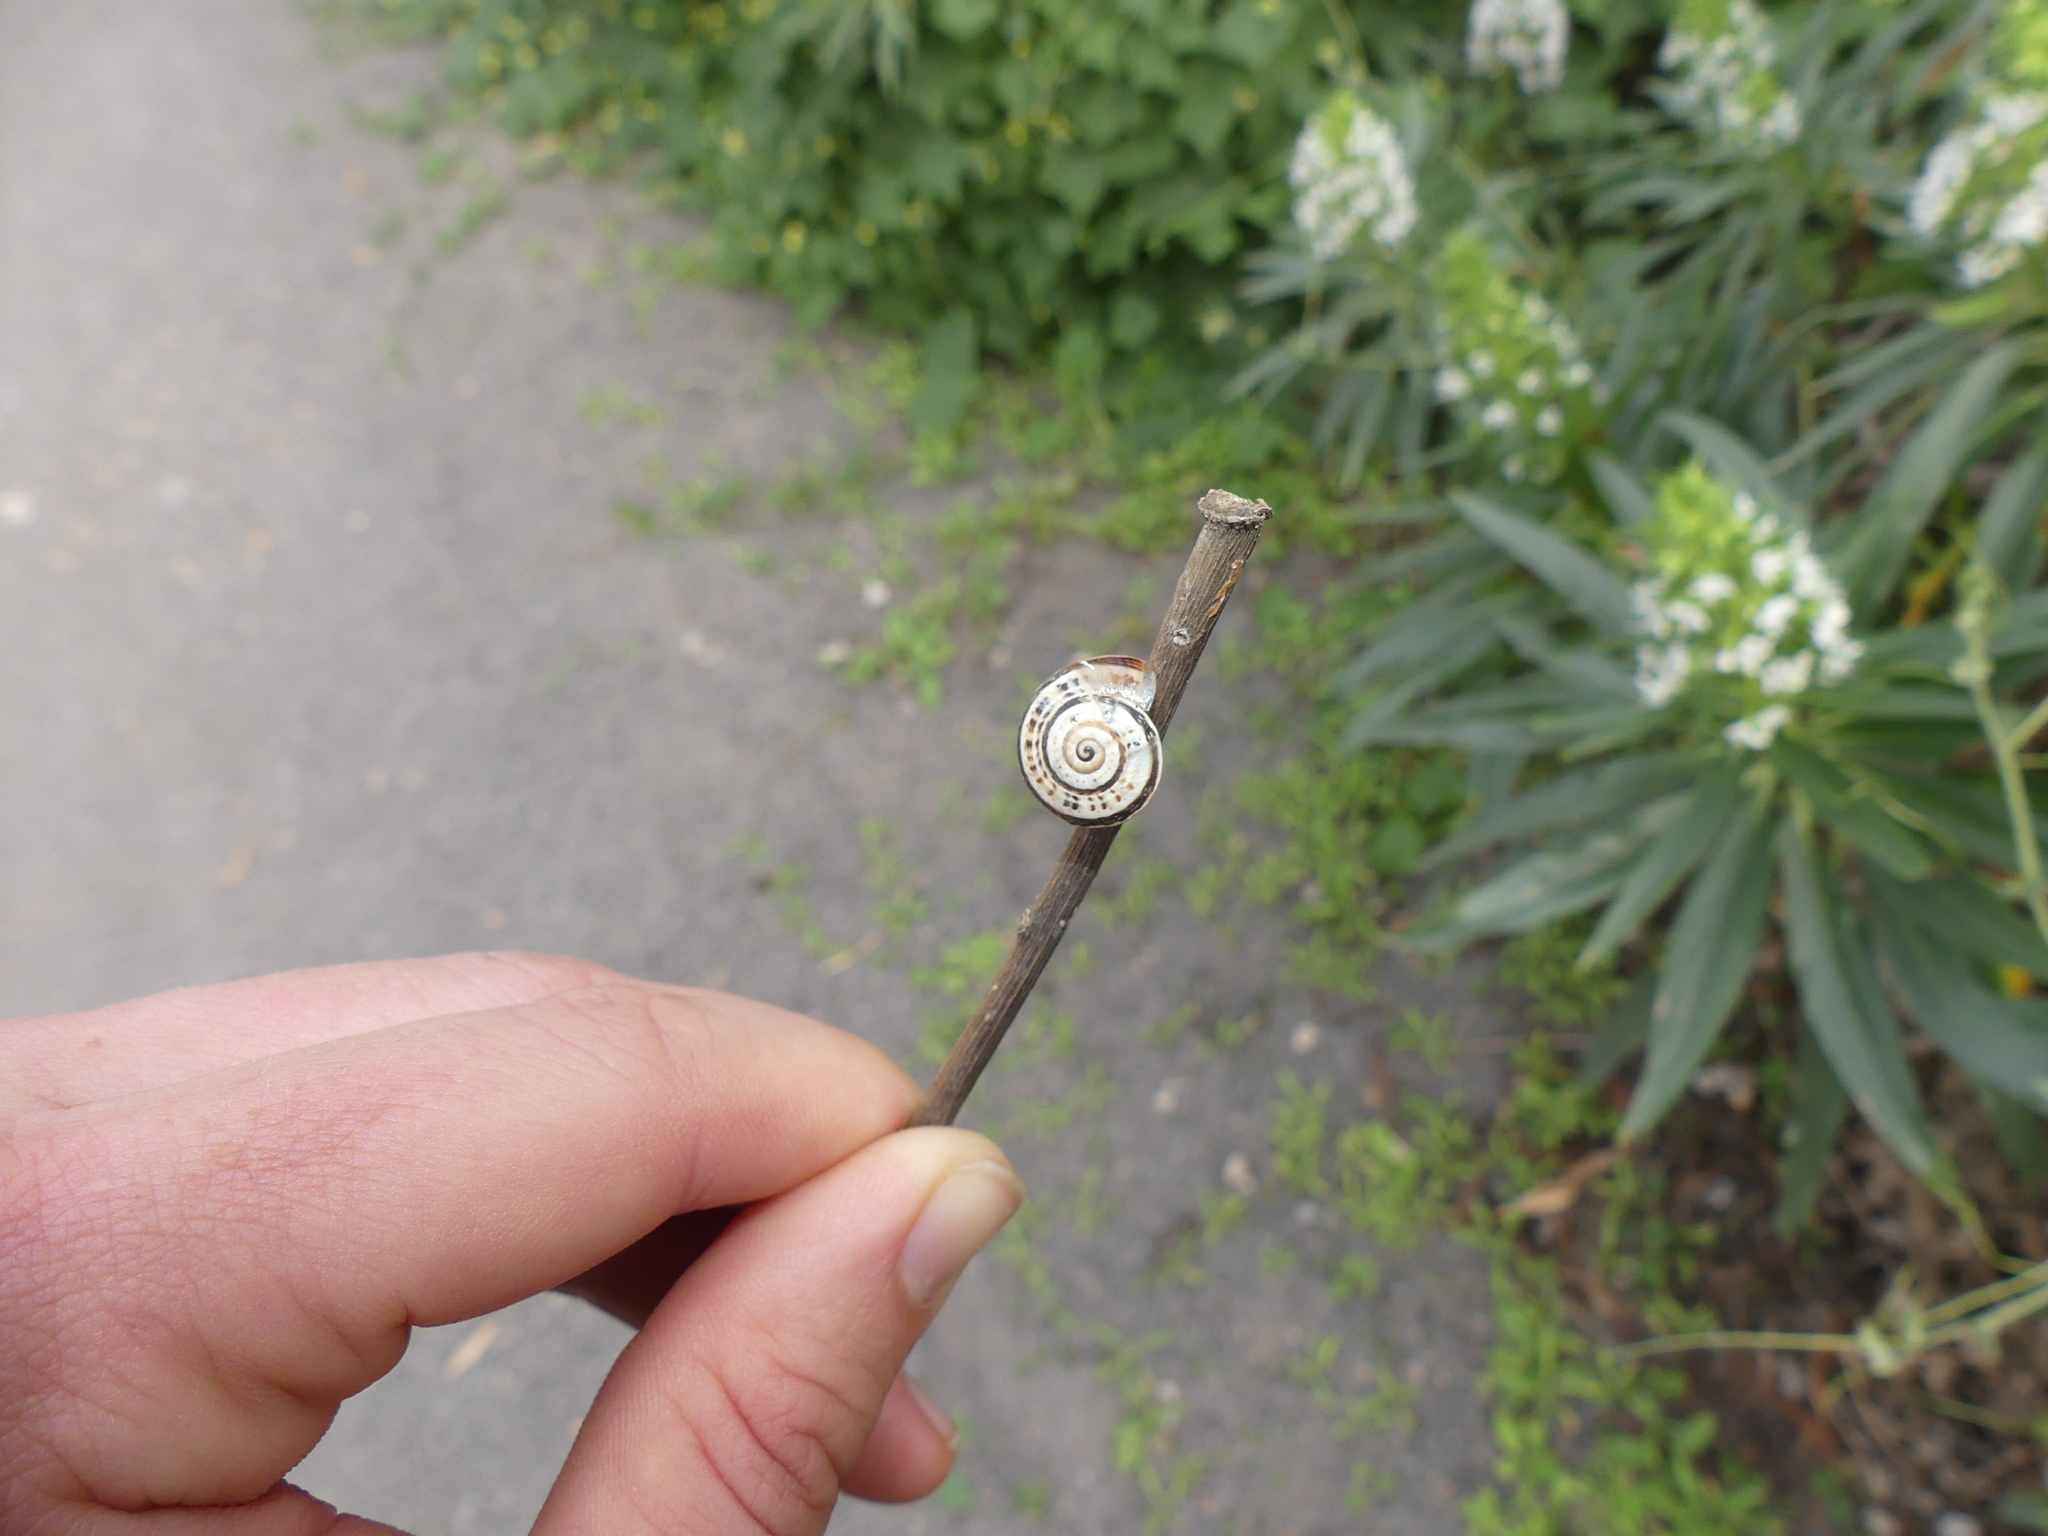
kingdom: Animalia
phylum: Mollusca
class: Gastropoda
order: Stylommatophora
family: Helicidae
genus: Theba
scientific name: Theba pisana
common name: White snail
